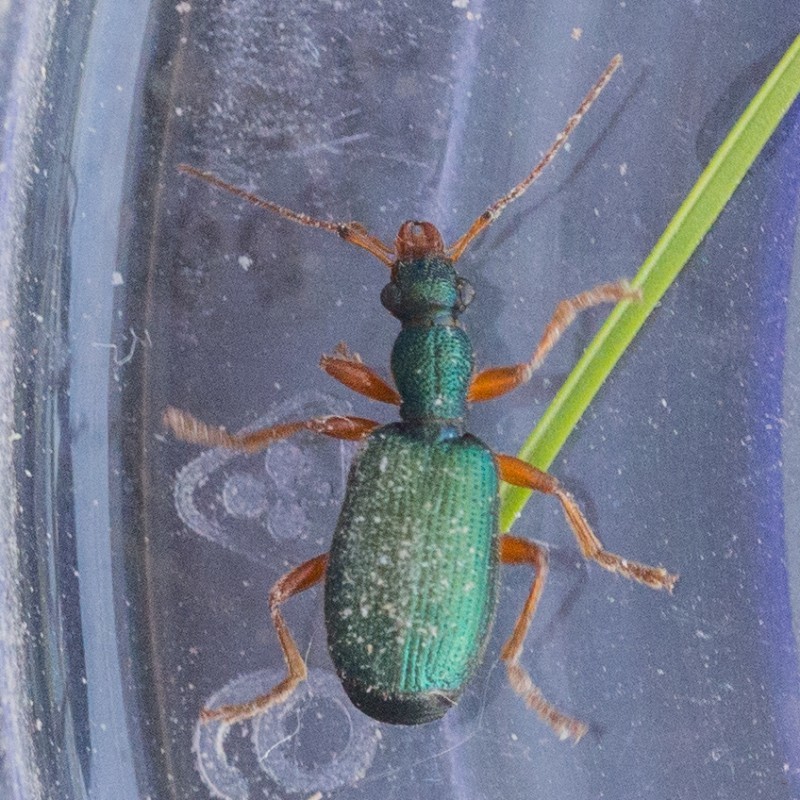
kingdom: Animalia
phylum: Arthropoda
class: Insecta
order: Coleoptera
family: Carabidae
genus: Drypta
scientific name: Drypta dentata
